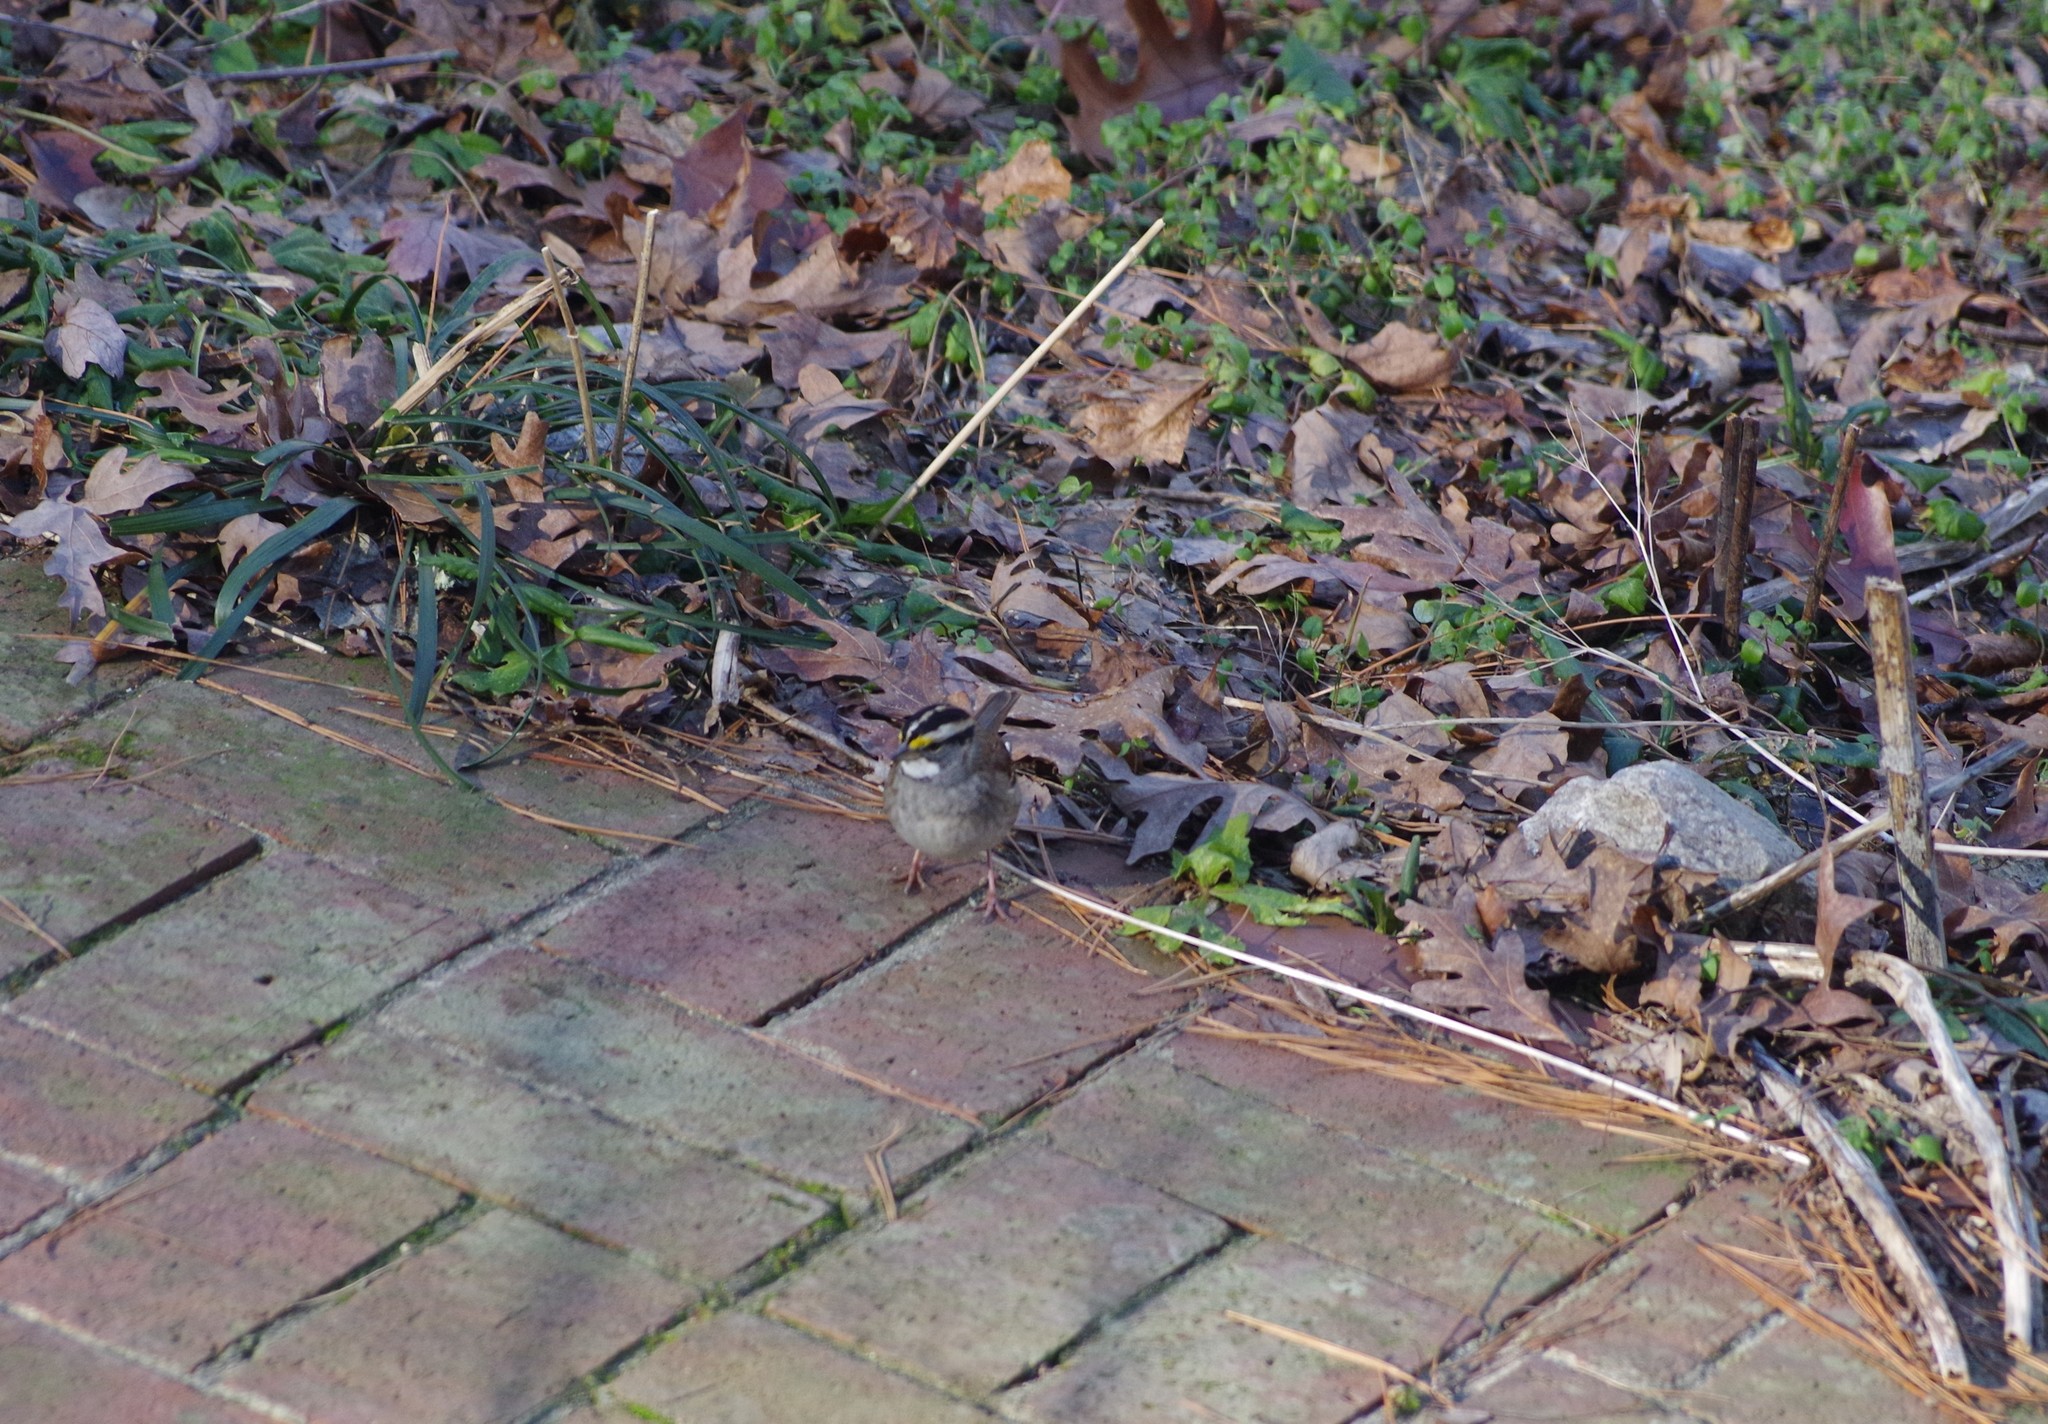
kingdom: Animalia
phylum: Chordata
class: Aves
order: Passeriformes
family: Passerellidae
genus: Zonotrichia
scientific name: Zonotrichia albicollis
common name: White-throated sparrow
